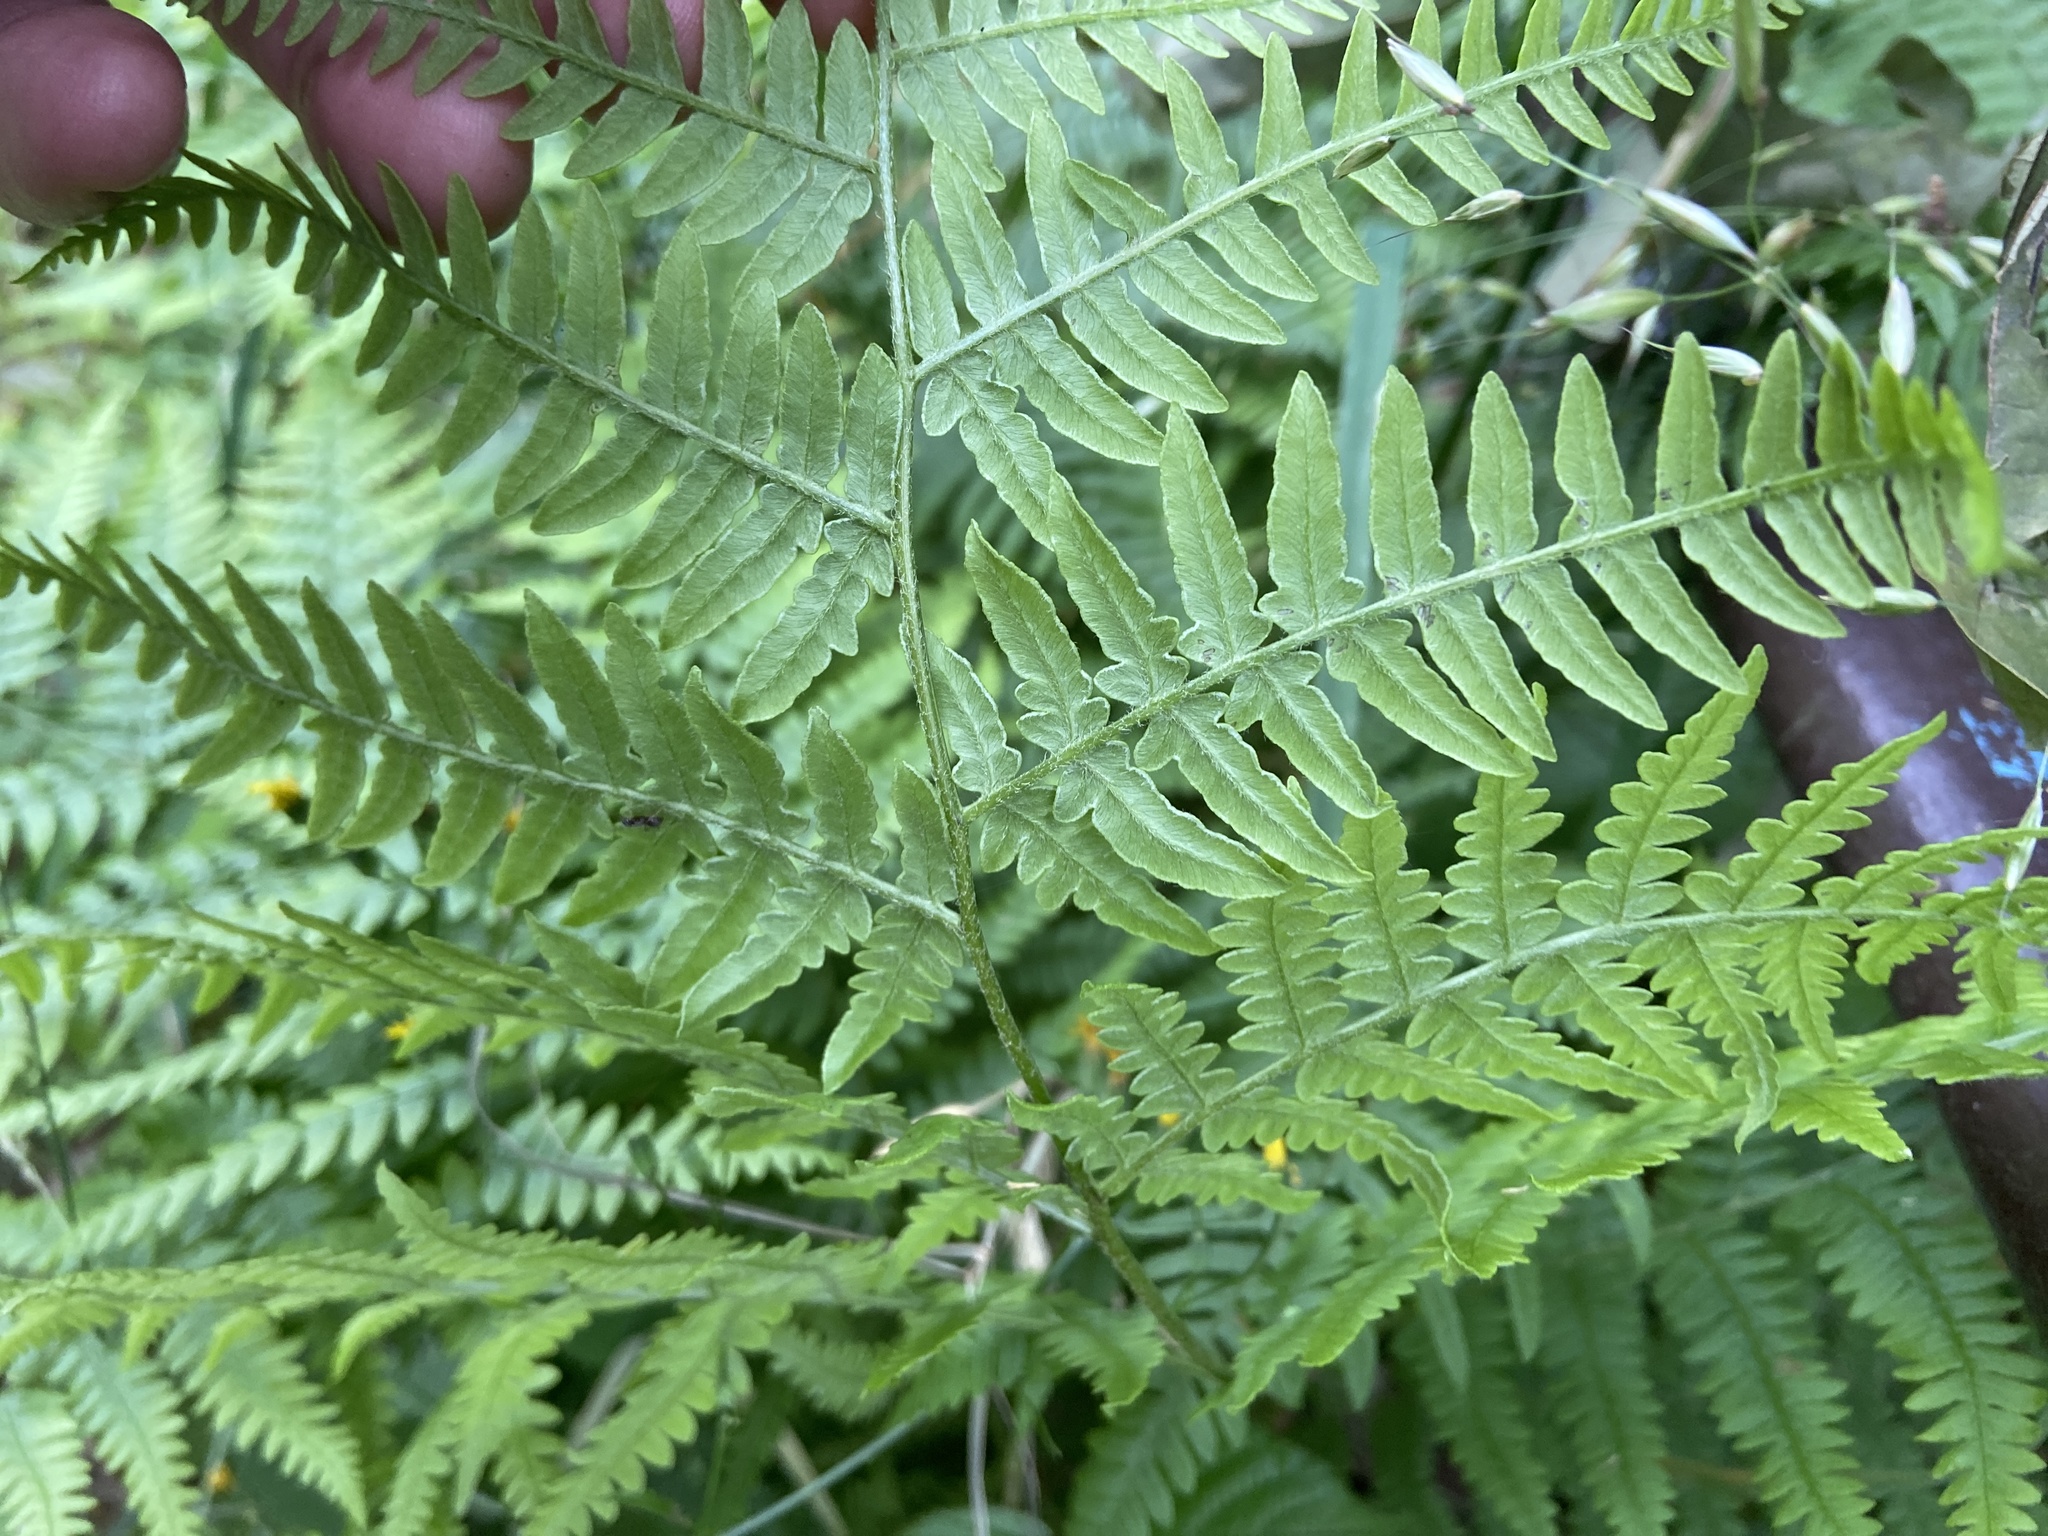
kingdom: Plantae
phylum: Tracheophyta
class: Polypodiopsida
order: Polypodiales
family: Dennstaedtiaceae
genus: Pteridium
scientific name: Pteridium aquilinum
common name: Bracken
